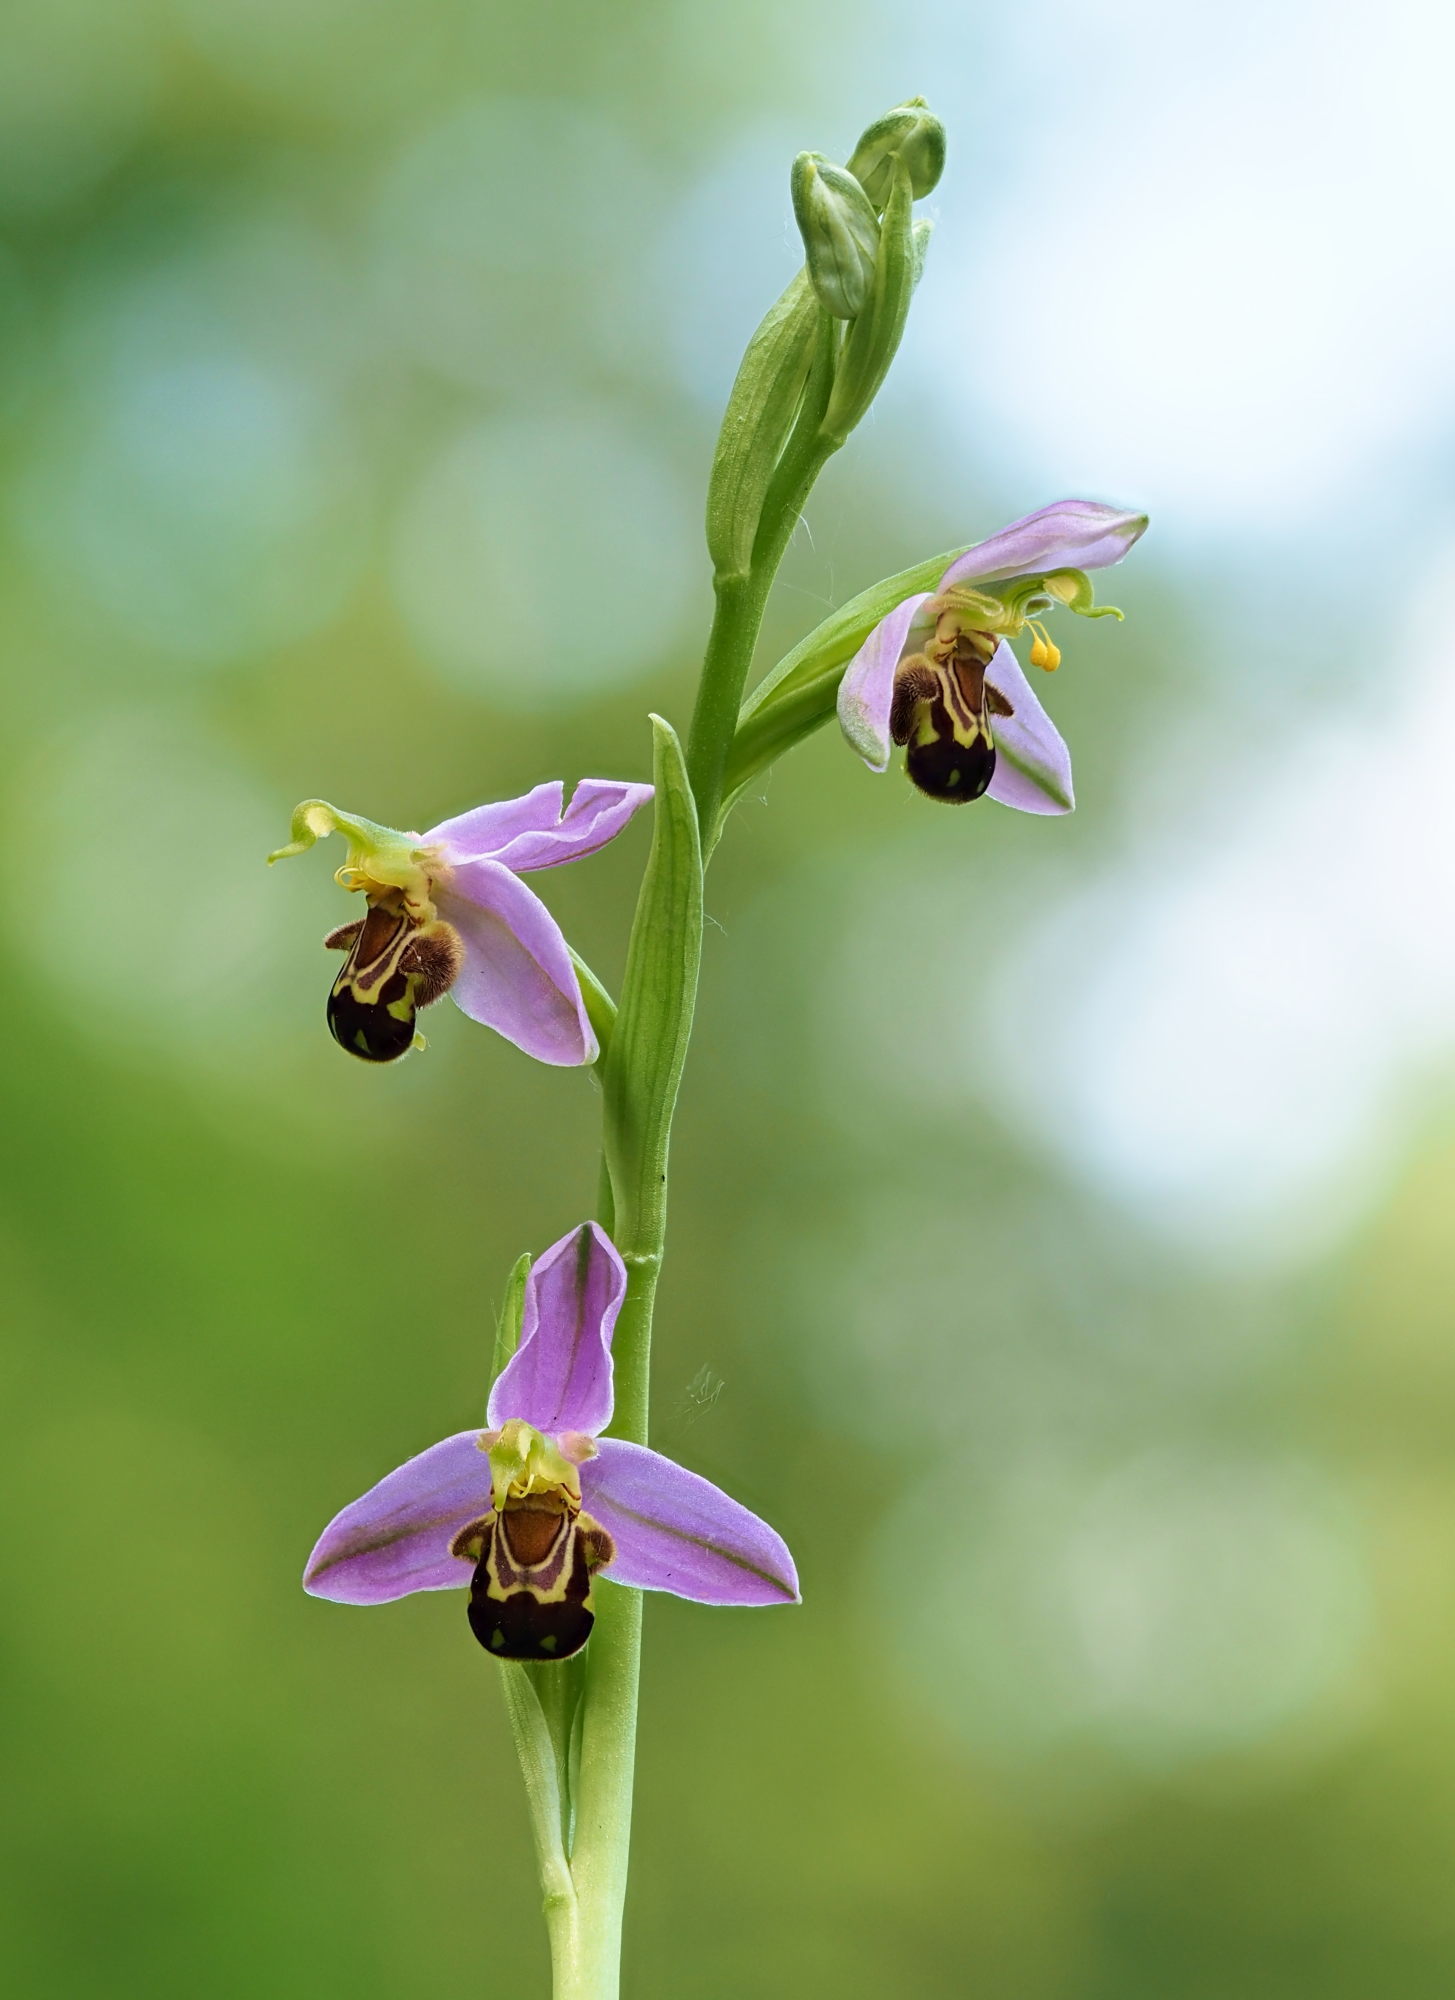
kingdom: Plantae
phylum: Tracheophyta
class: Liliopsida
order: Asparagales
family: Orchidaceae
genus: Ophrys
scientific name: Ophrys apifera
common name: Bee orchid
